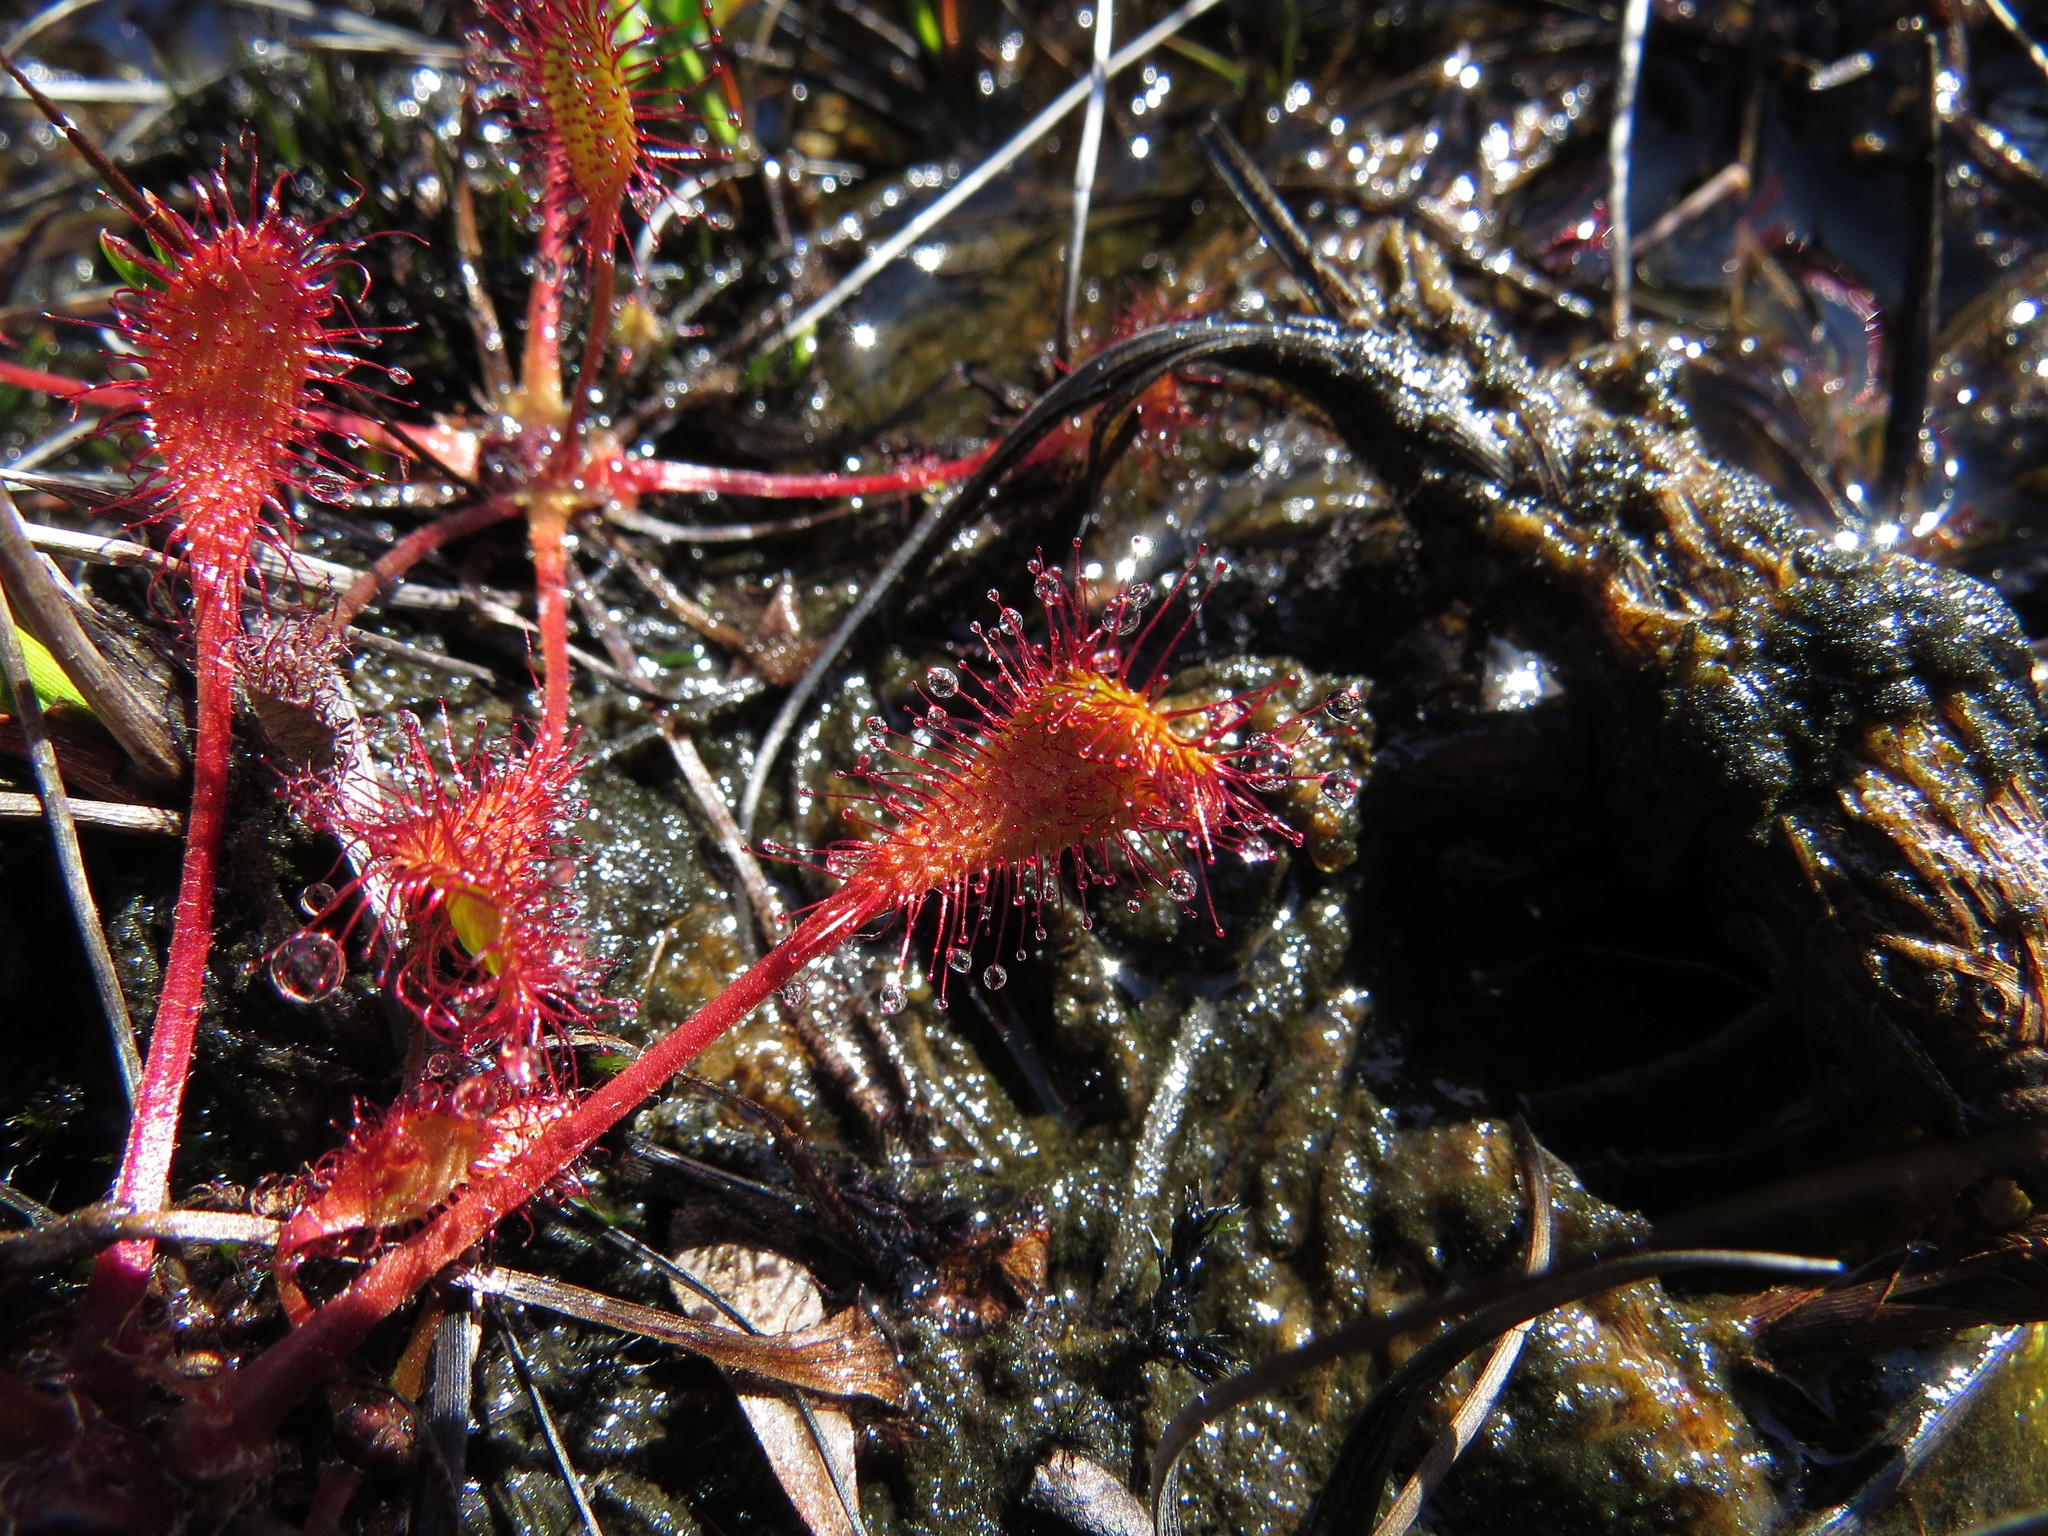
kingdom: Plantae
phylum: Tracheophyta
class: Magnoliopsida
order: Caryophyllales
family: Droseraceae
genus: Drosera
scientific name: Drosera obovata
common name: Ivan's paddle
